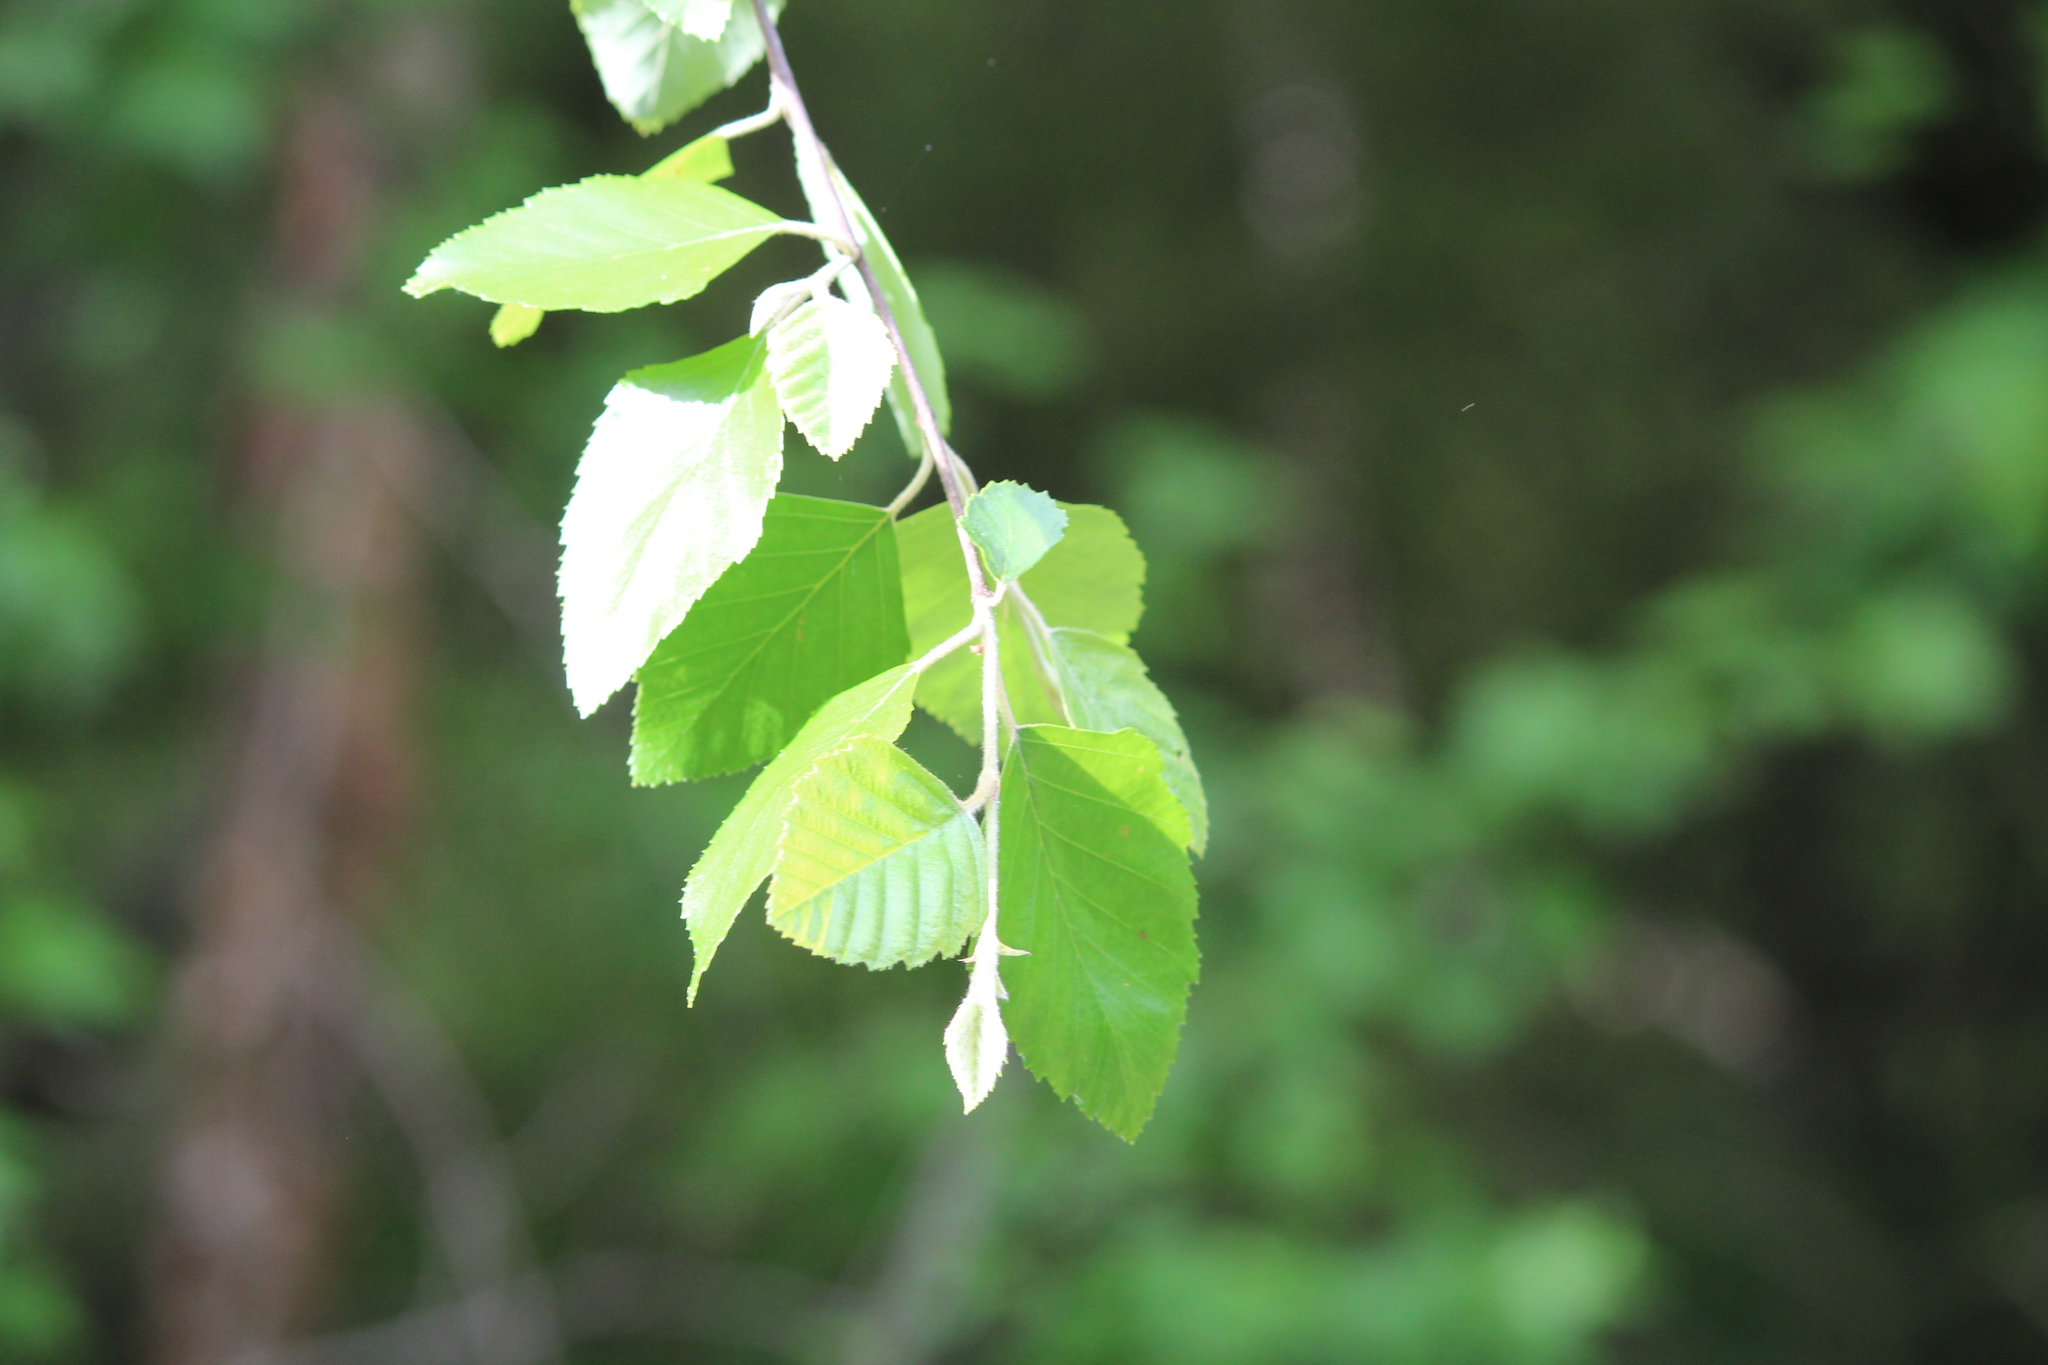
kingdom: Plantae
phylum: Tracheophyta
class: Magnoliopsida
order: Fagales
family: Betulaceae
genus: Betula
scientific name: Betula nigra
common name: Black birch
